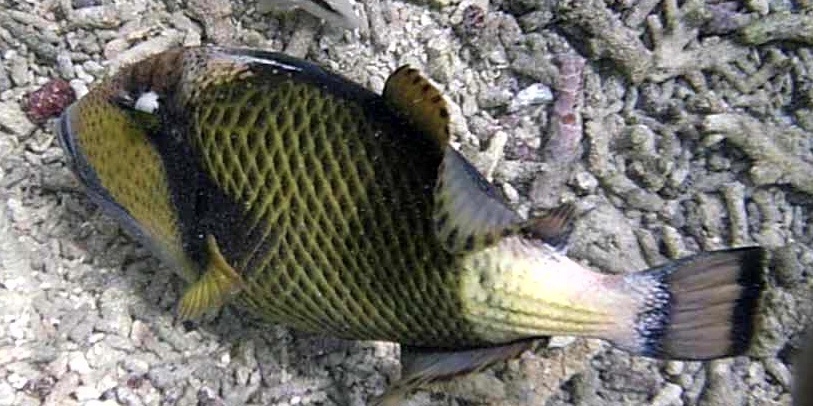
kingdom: Animalia
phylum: Chordata
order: Tetraodontiformes
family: Balistidae
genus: Balistoides
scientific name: Balistoides viridescens
